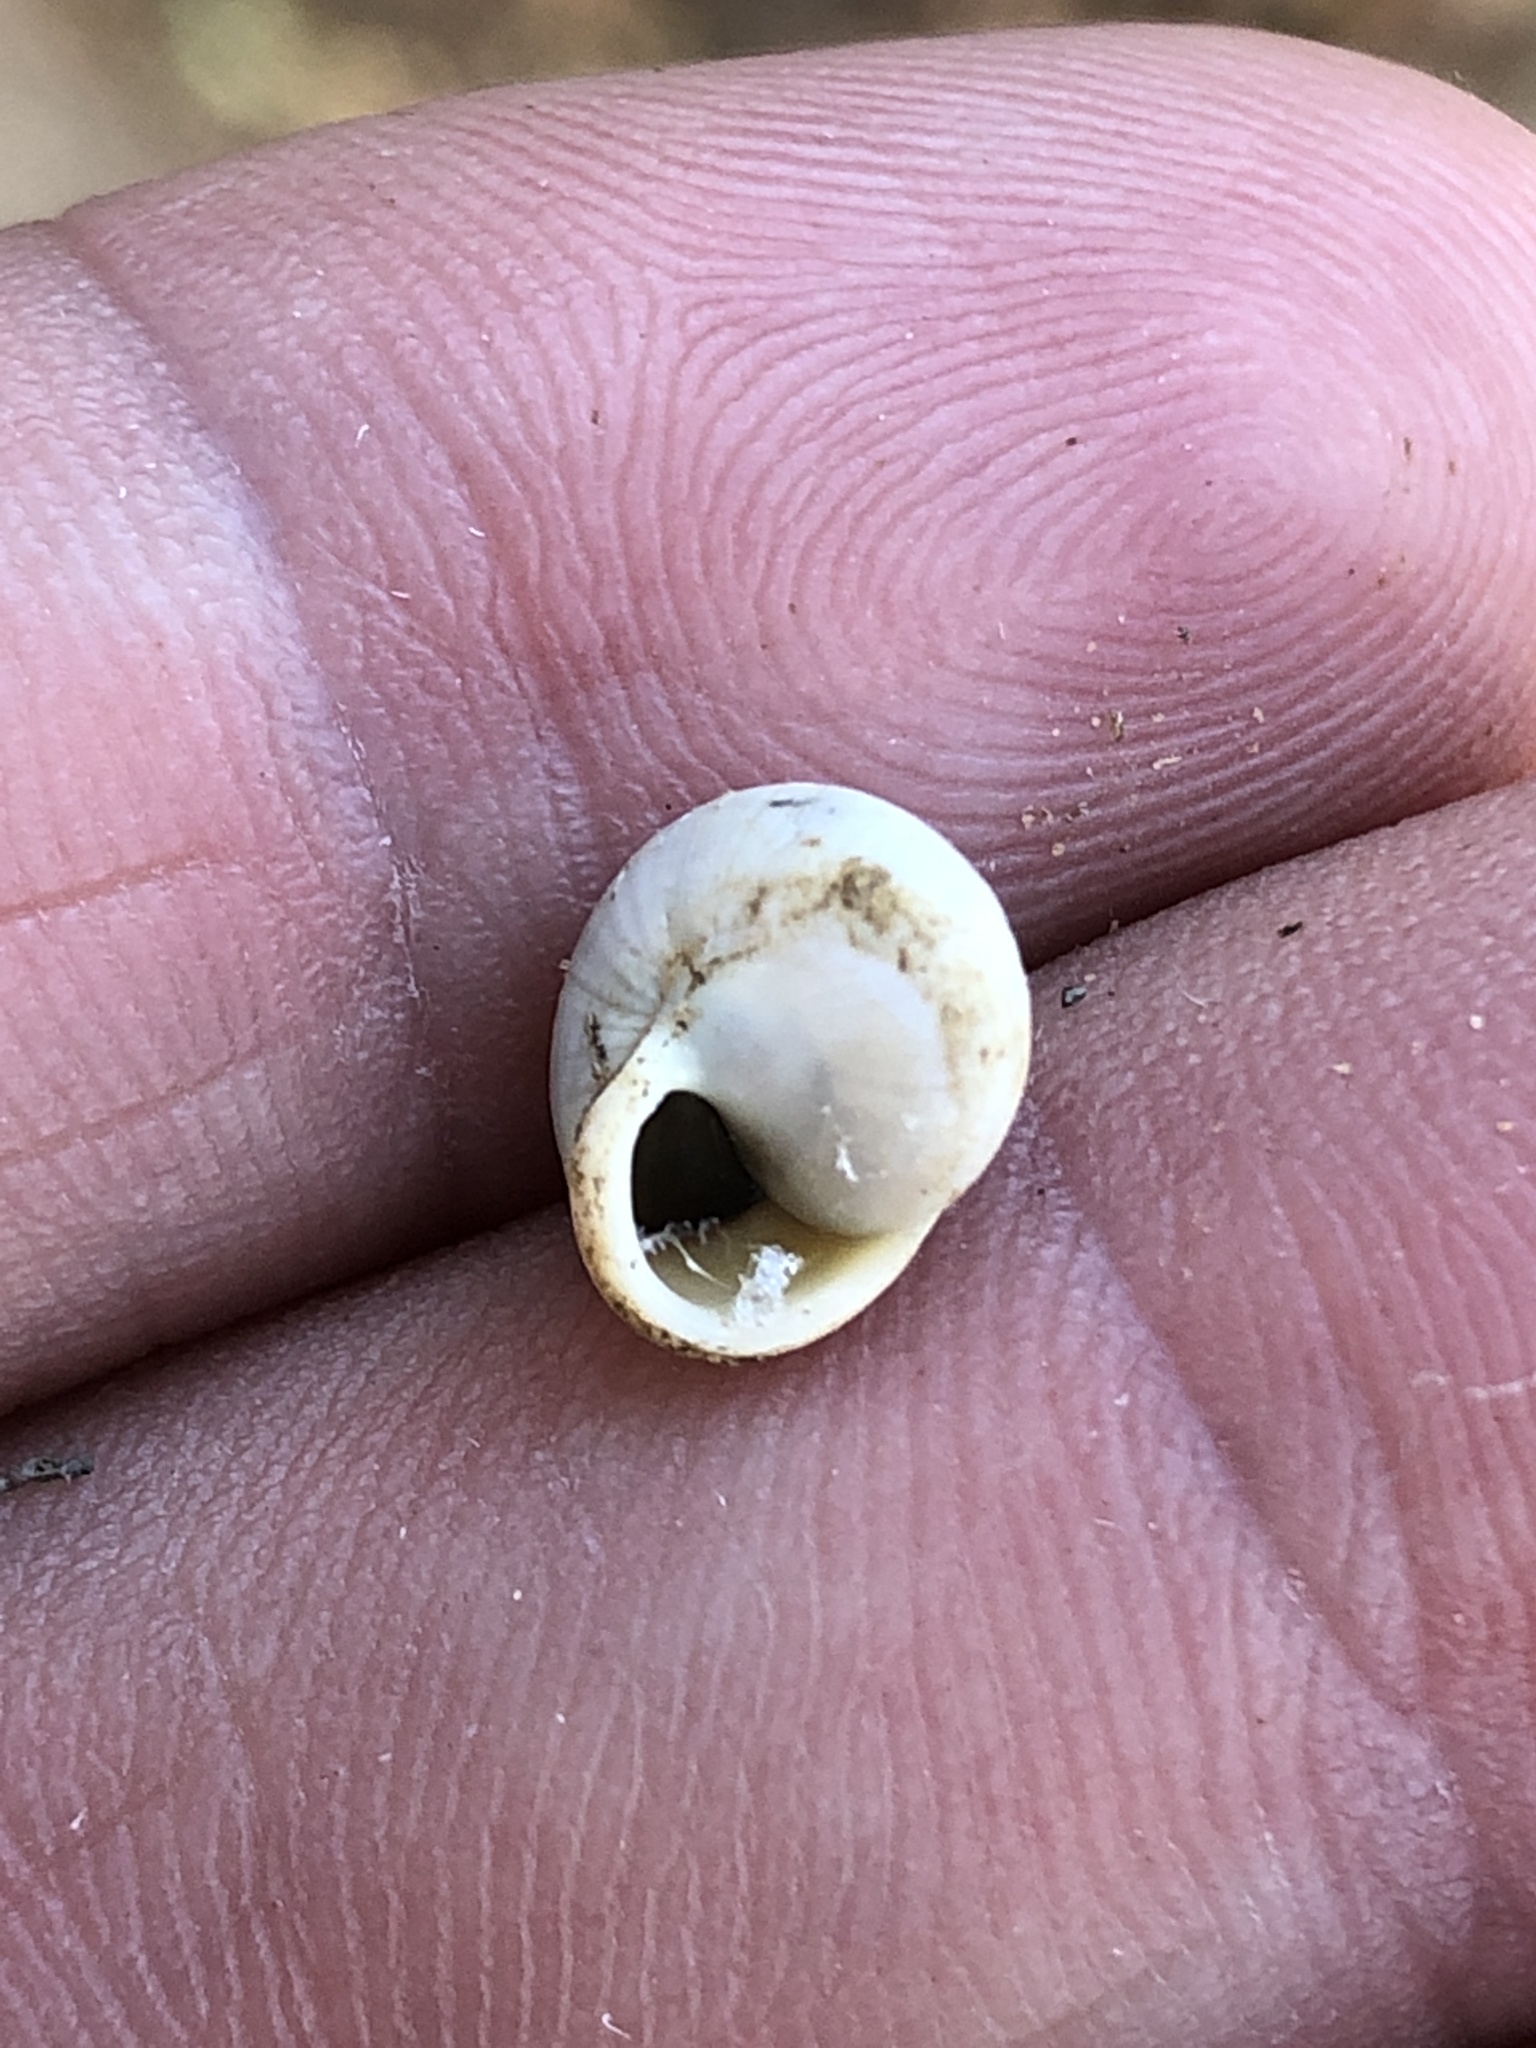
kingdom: Animalia
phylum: Mollusca
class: Gastropoda
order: Cycloneritida
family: Helicinidae
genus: Helicina
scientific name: Helicina orbiculata
